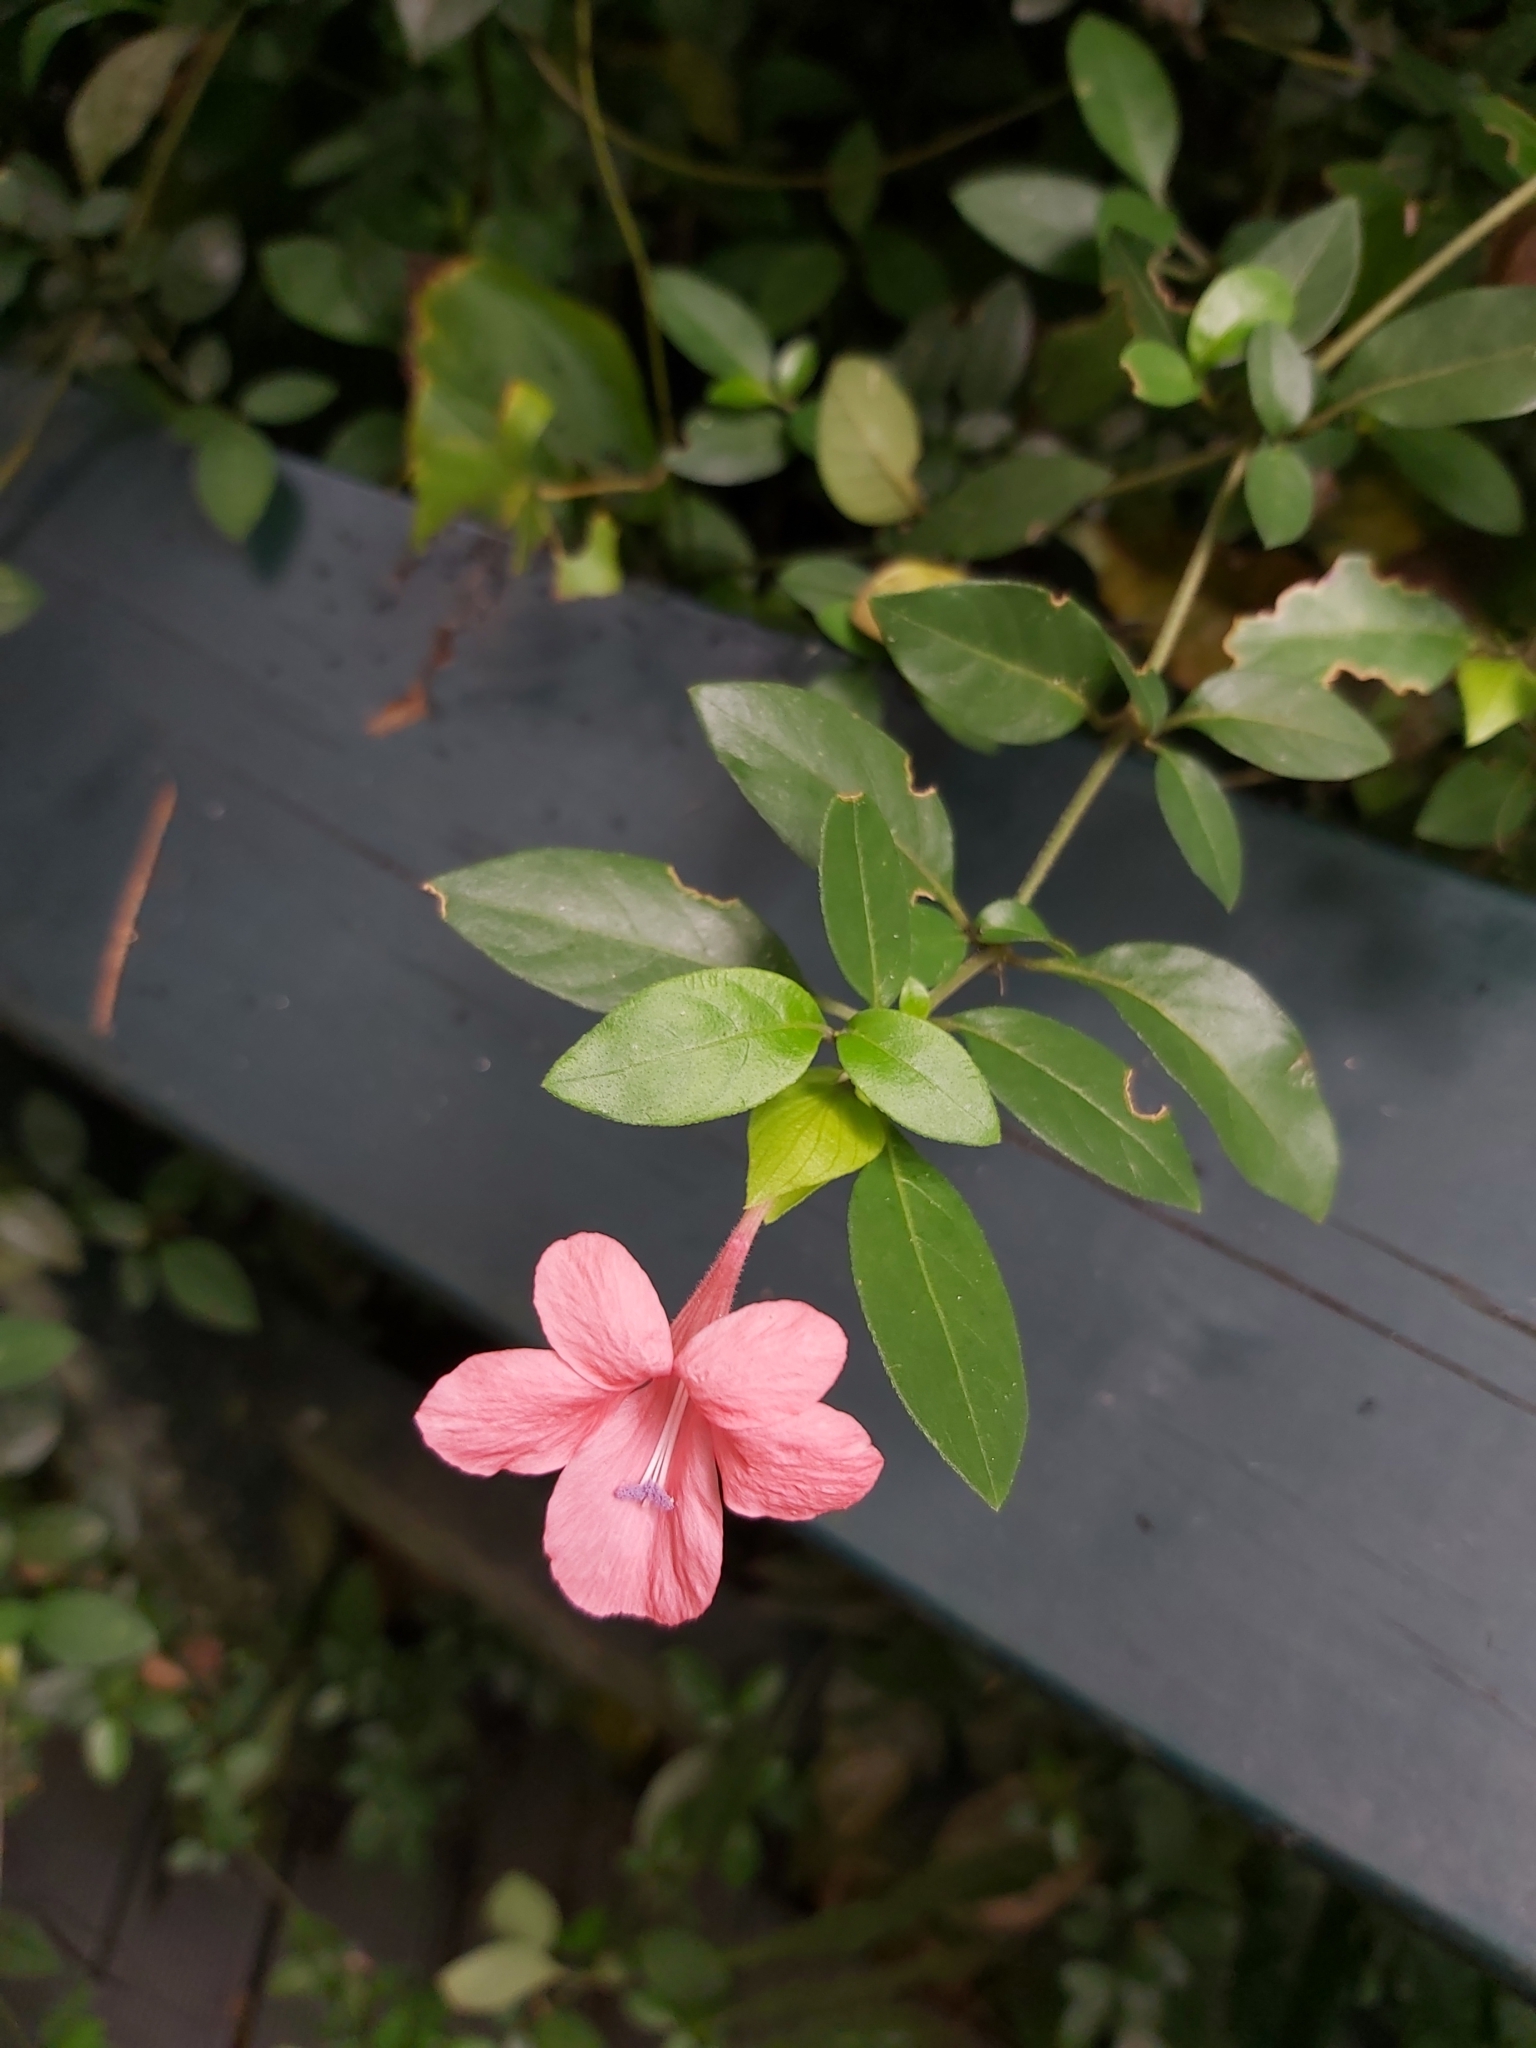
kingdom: Plantae
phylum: Tracheophyta
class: Magnoliopsida
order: Lamiales
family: Acanthaceae
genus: Barleria
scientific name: Barleria repens
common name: Pink-ruellia
